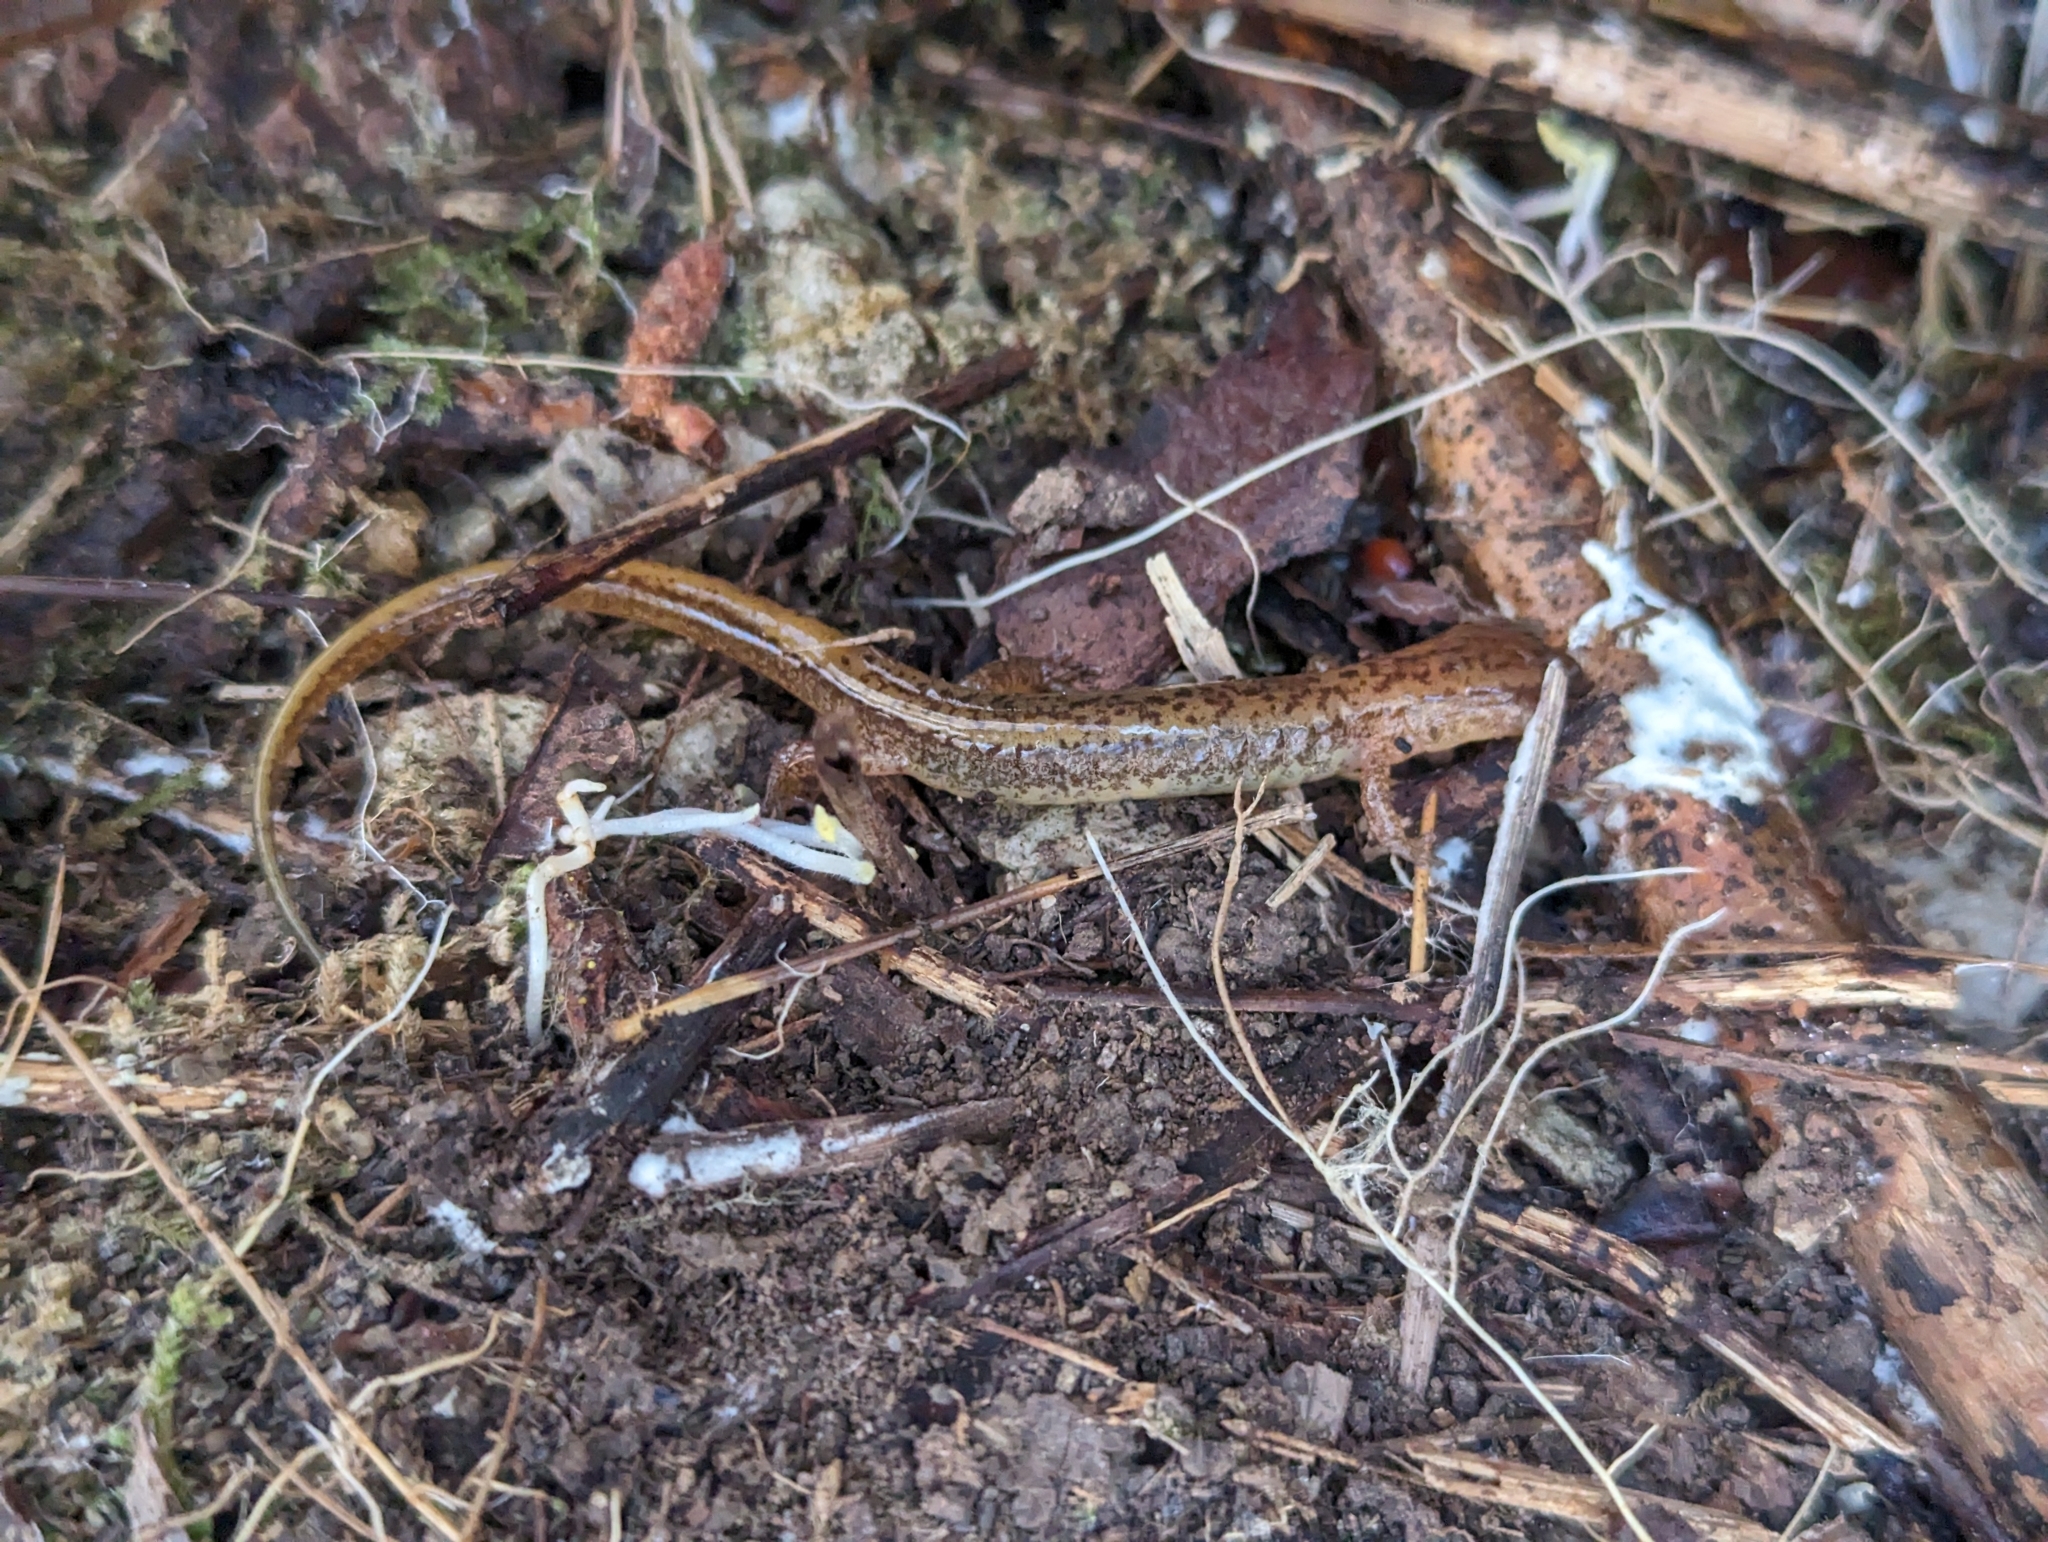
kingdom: Animalia
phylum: Chordata
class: Amphibia
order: Caudata
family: Plethodontidae
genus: Eurycea
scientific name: Eurycea cirrigera
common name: Southern two-lined salamander
